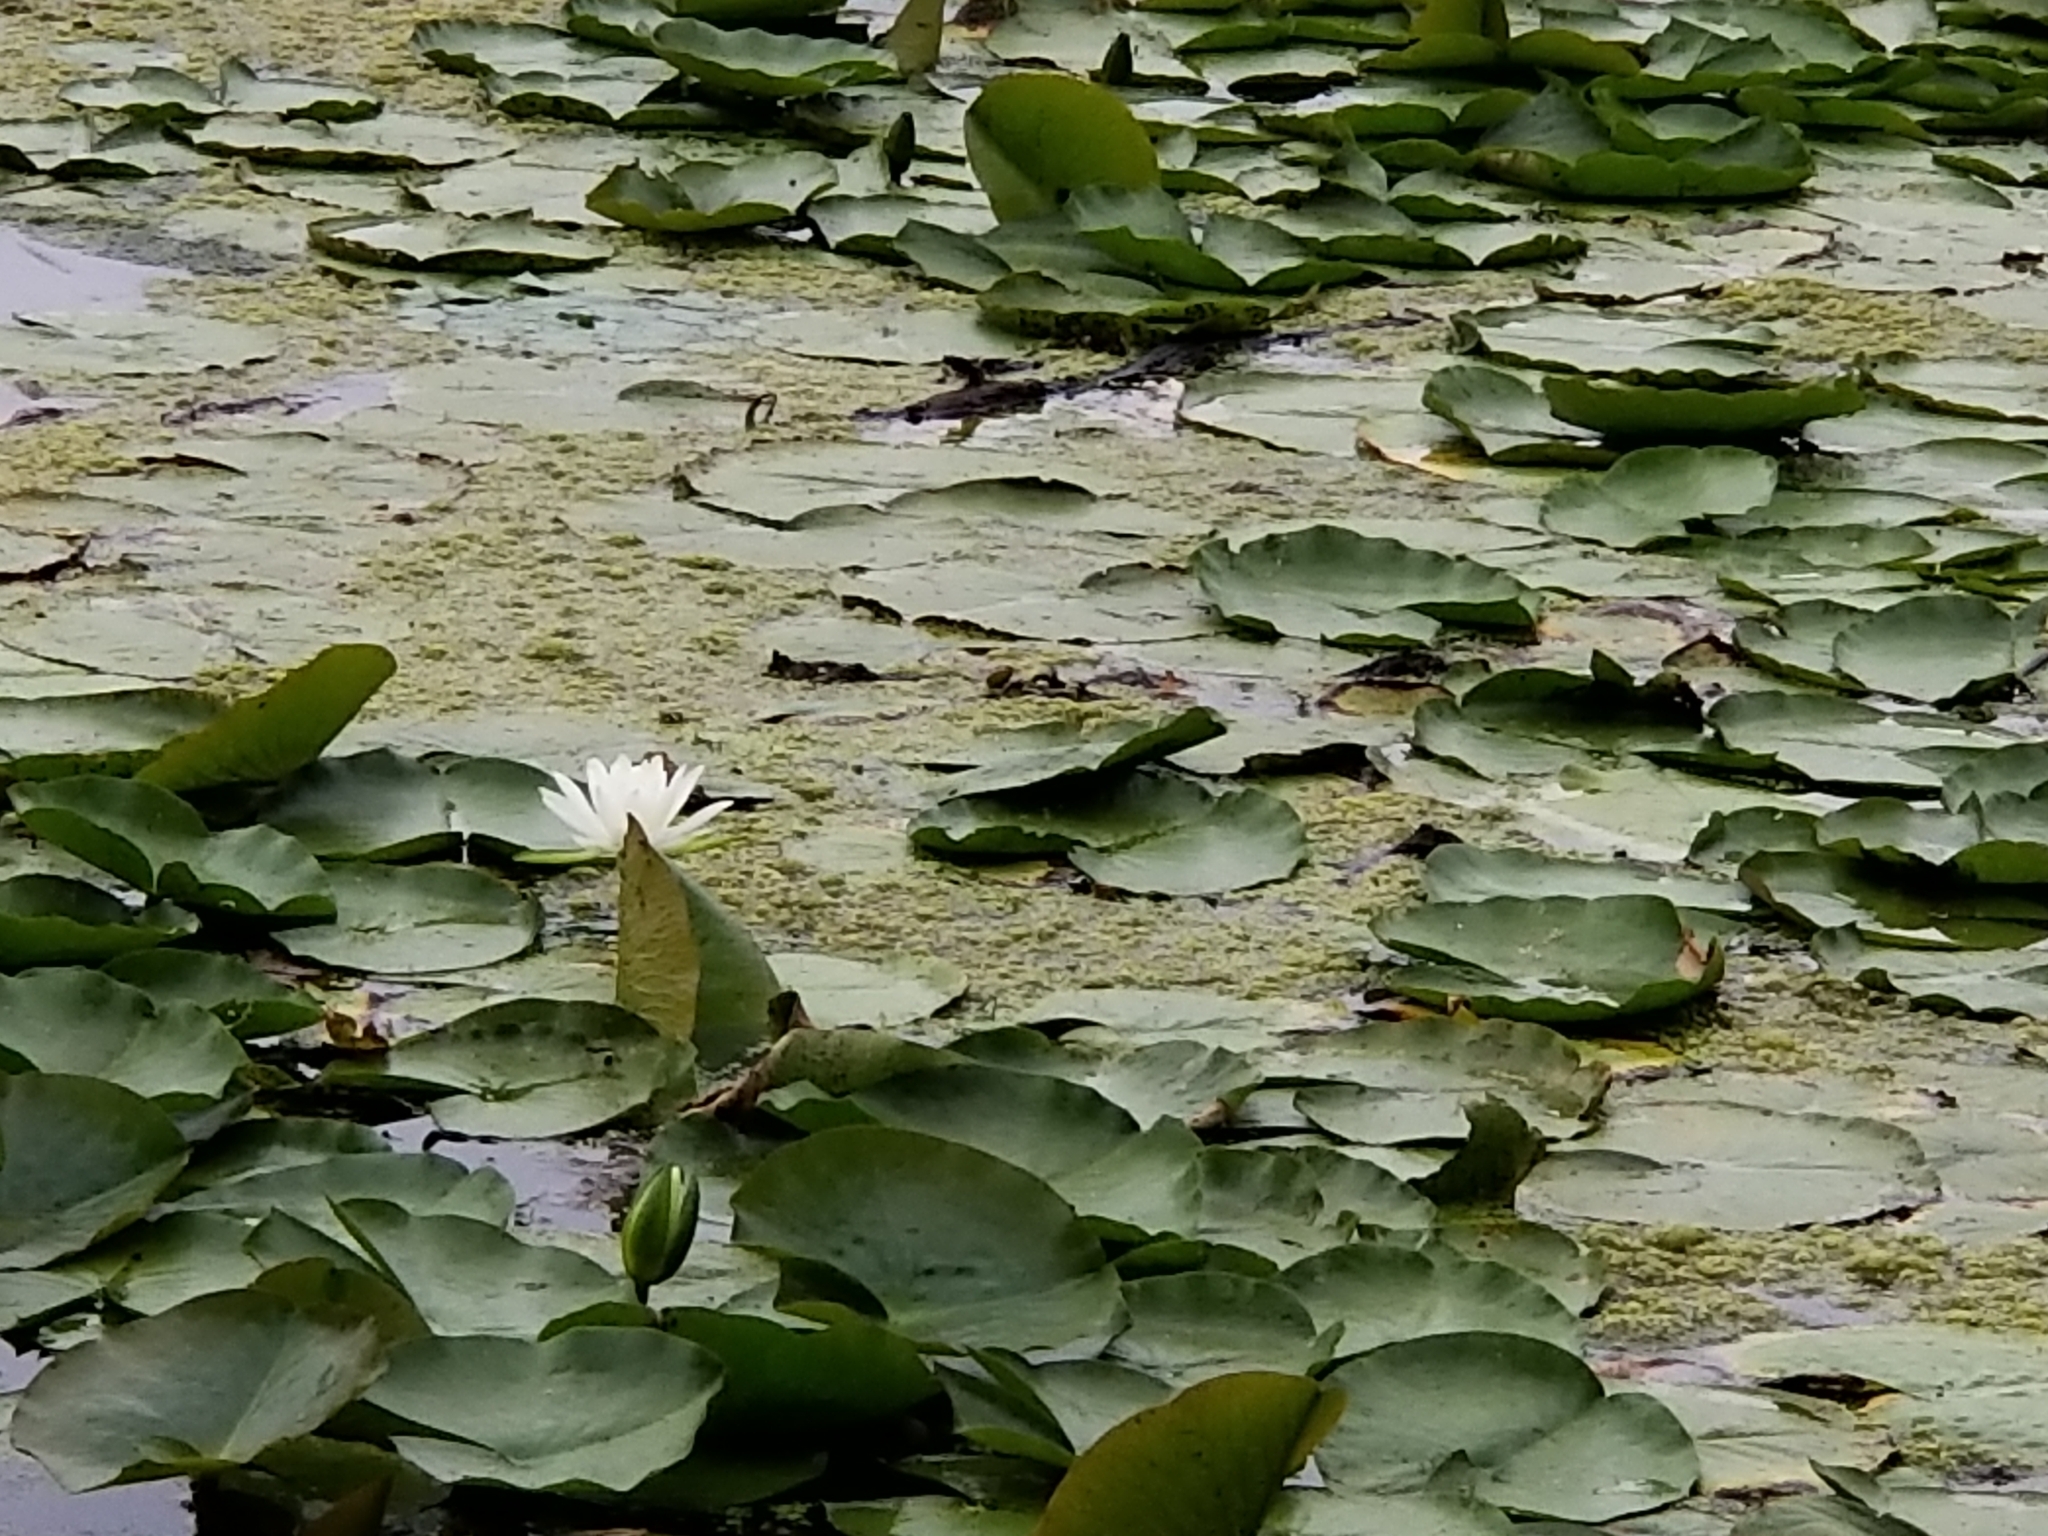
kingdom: Plantae
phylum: Tracheophyta
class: Magnoliopsida
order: Nymphaeales
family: Nymphaeaceae
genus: Nymphaea
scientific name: Nymphaea odorata
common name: Fragrant water-lily
